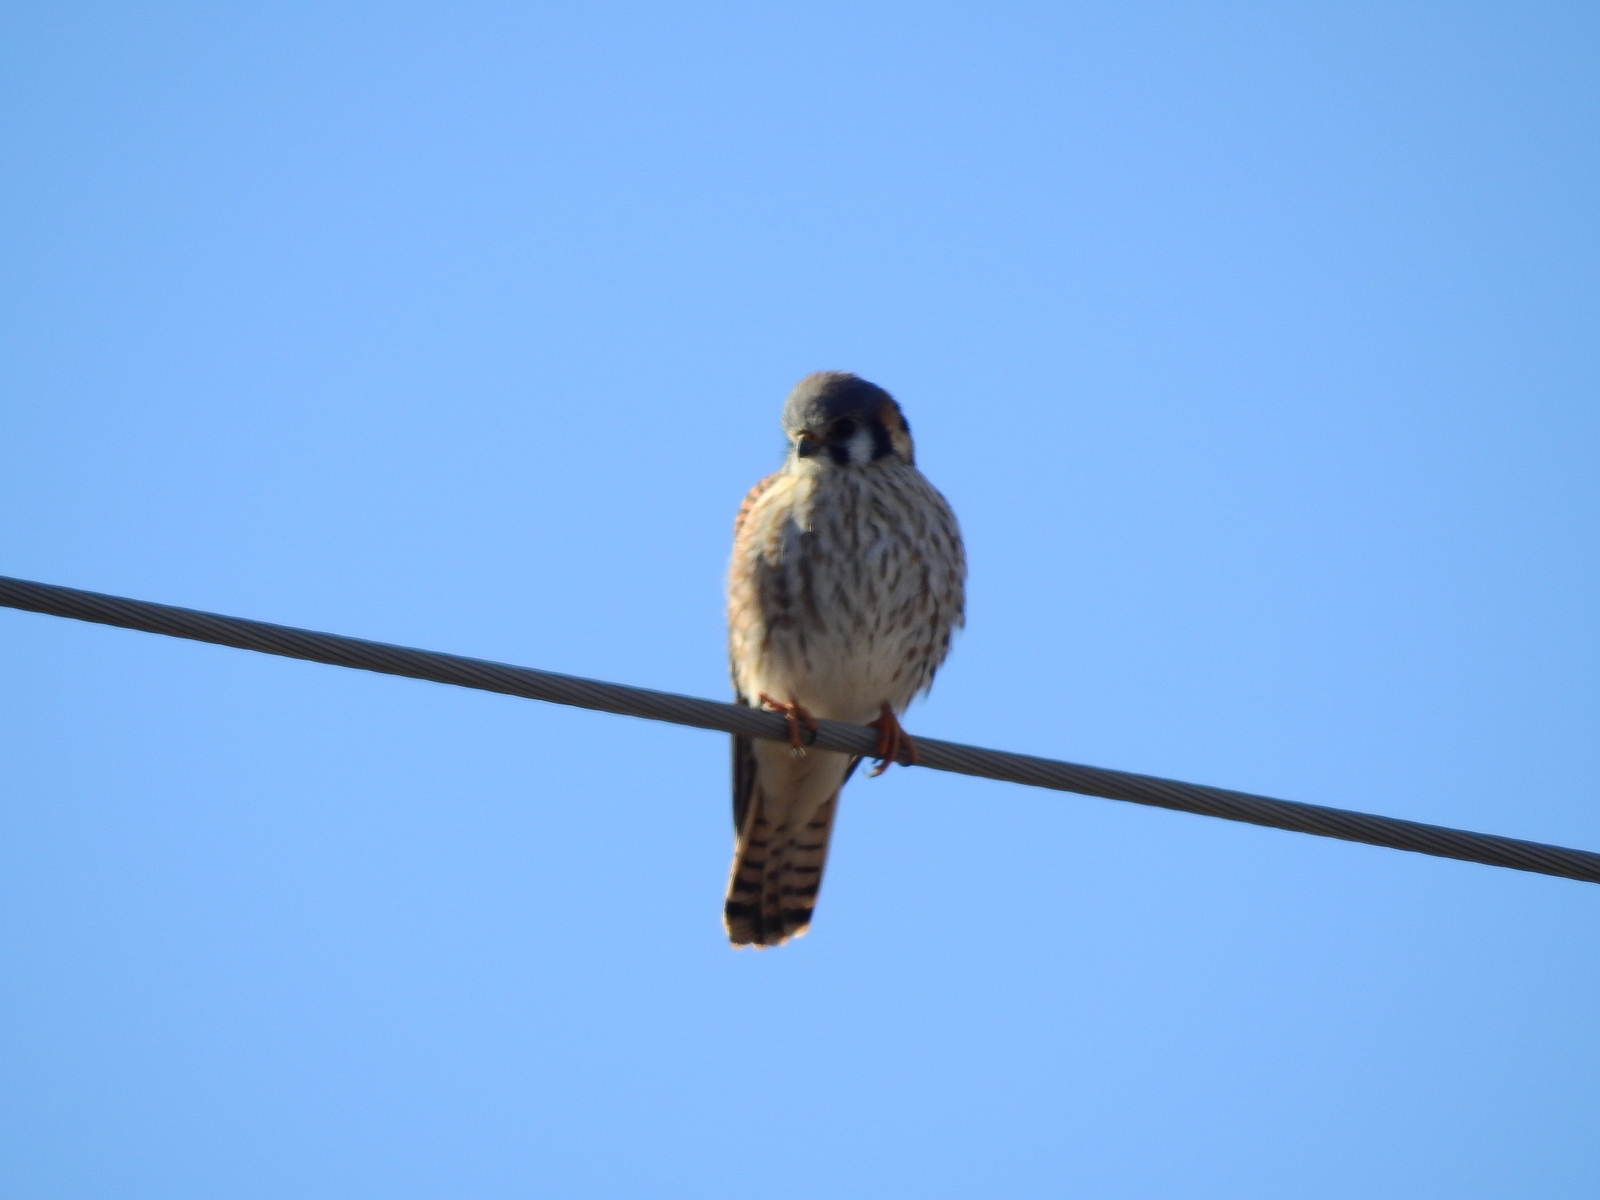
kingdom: Animalia
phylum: Chordata
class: Aves
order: Falconiformes
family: Falconidae
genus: Falco
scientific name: Falco sparverius
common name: American kestrel
